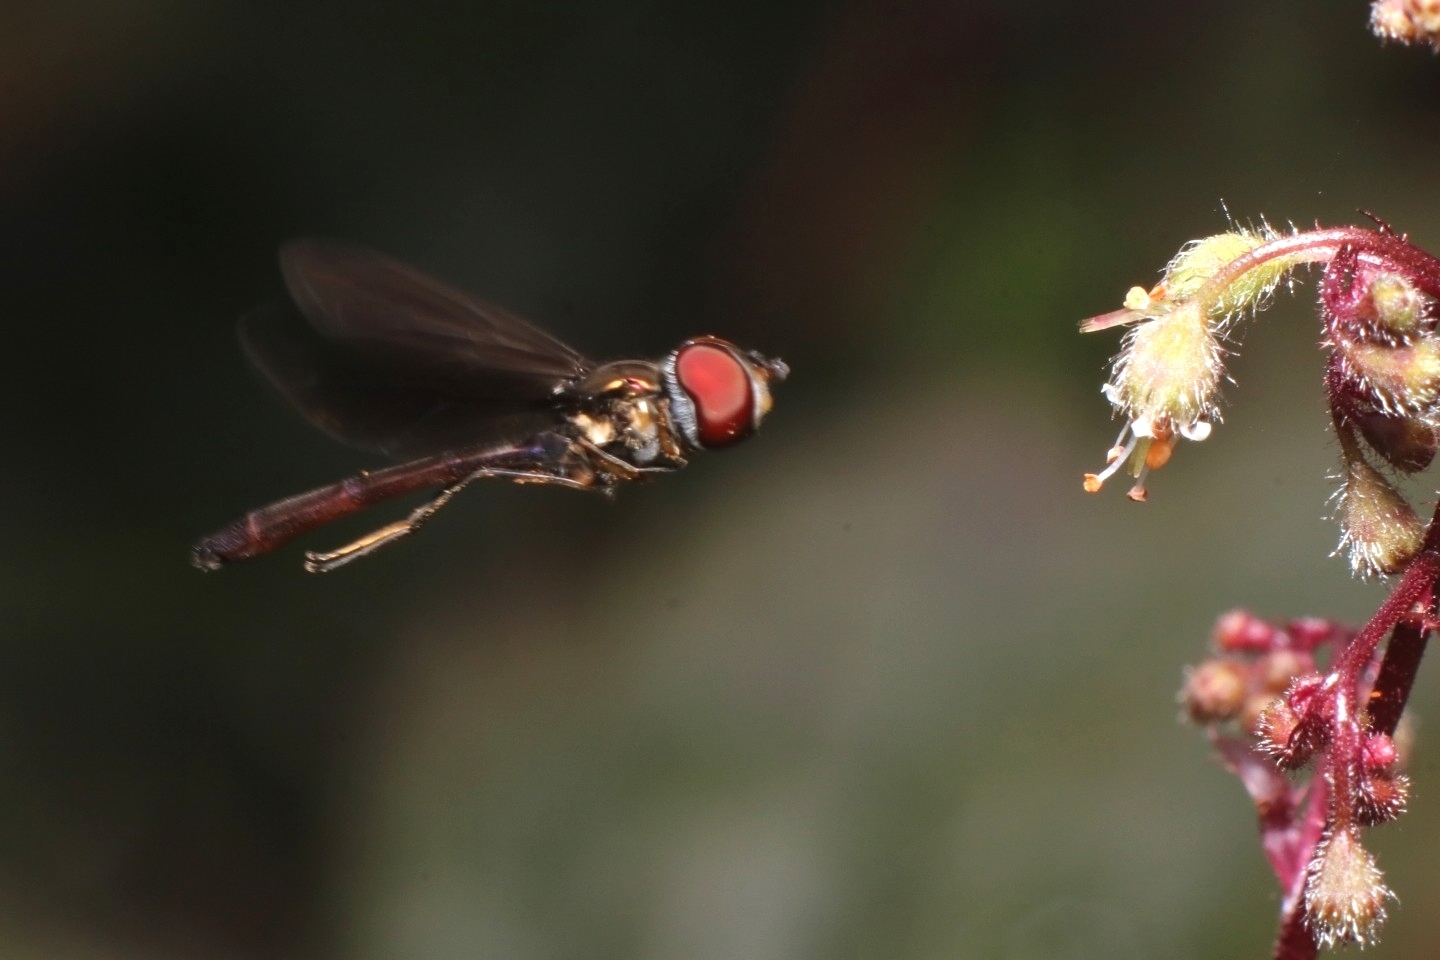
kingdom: Animalia
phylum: Arthropoda
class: Insecta
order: Diptera
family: Syrphidae
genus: Ocyptamus
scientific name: Ocyptamus fuscipennis
